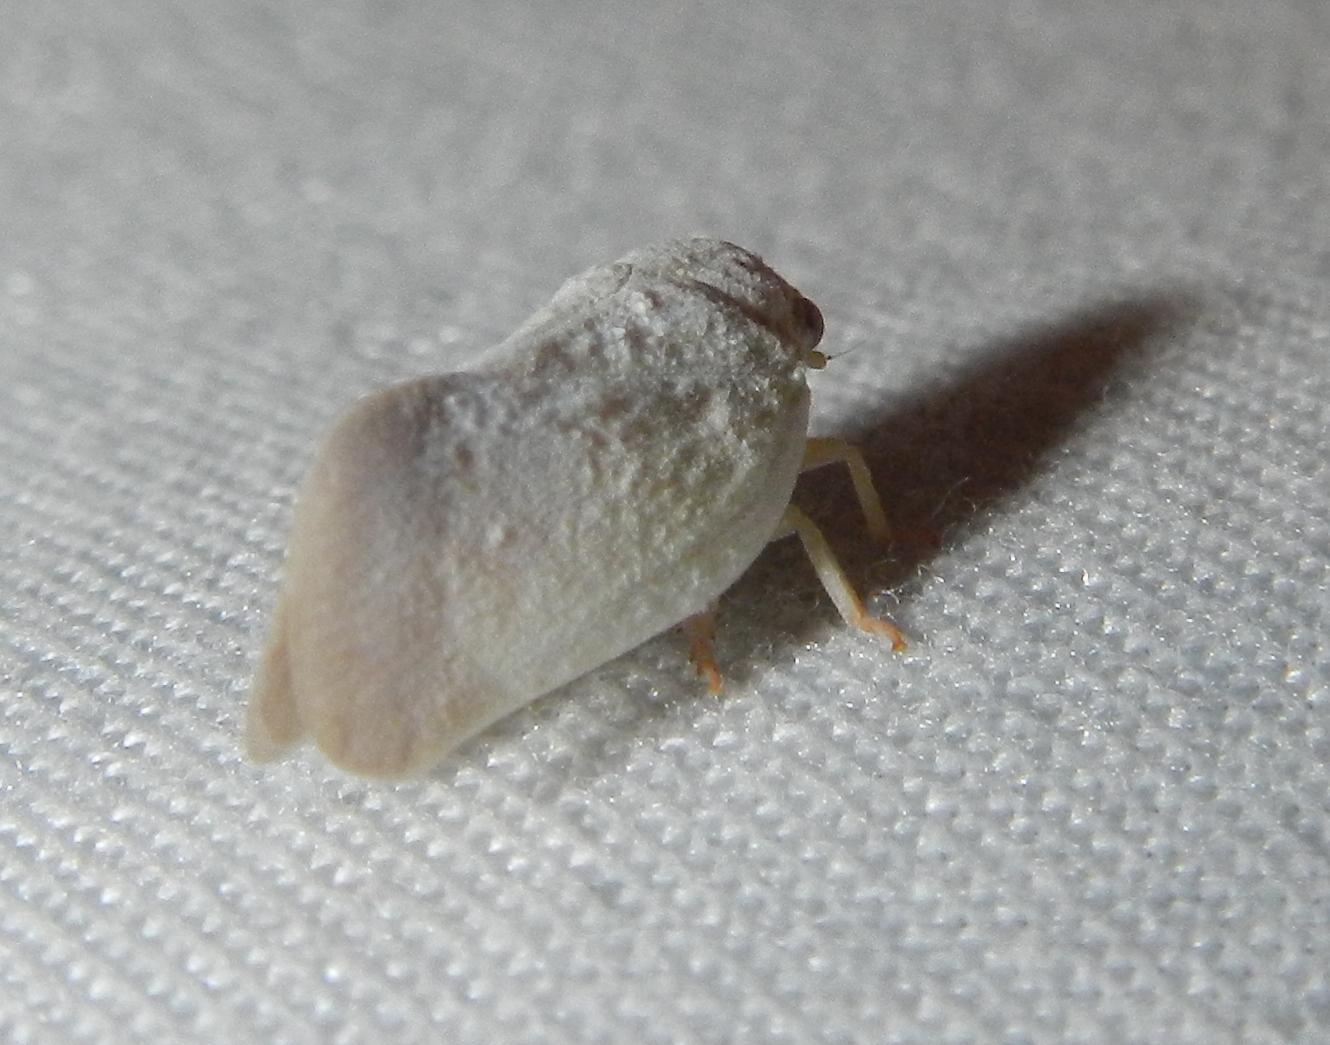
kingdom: Animalia
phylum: Arthropoda
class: Insecta
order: Hemiptera
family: Flatidae
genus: Flatormenis
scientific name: Flatormenis saucia
